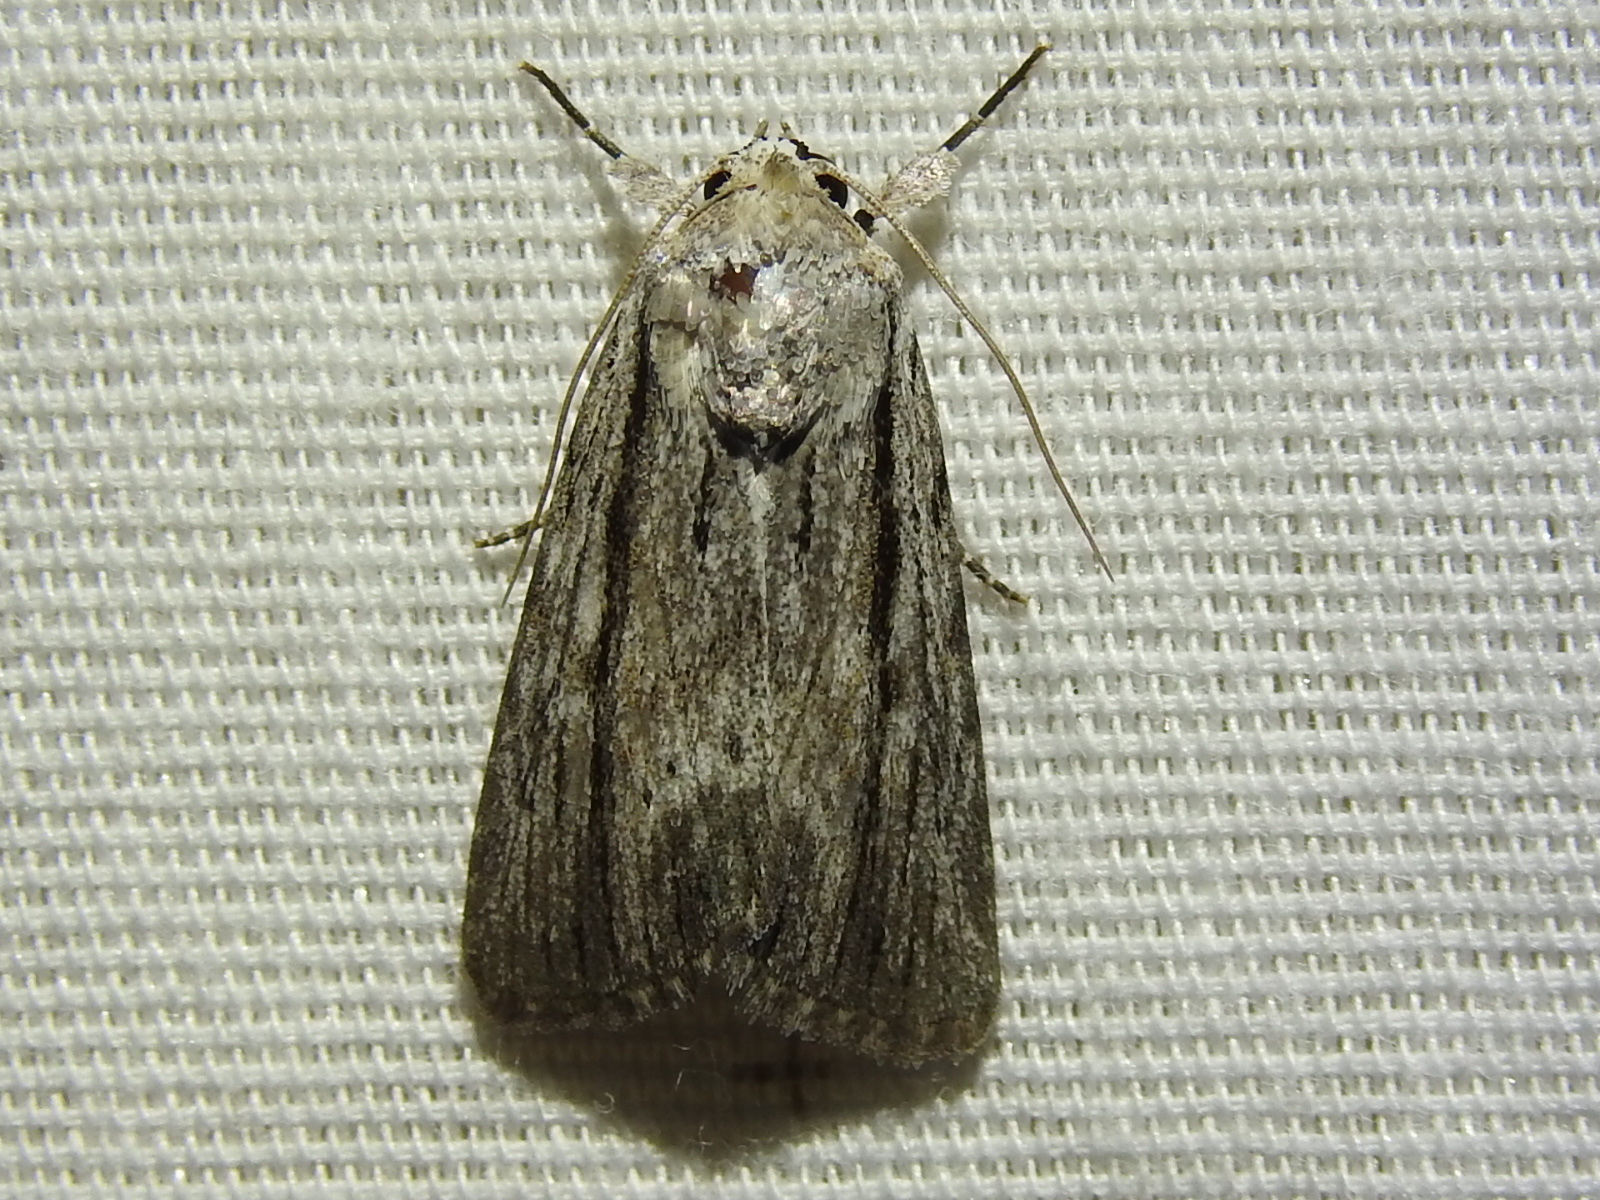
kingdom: Animalia
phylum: Arthropoda
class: Insecta
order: Lepidoptera
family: Noctuidae
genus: Catabenoides
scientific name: Catabenoides terminellus
